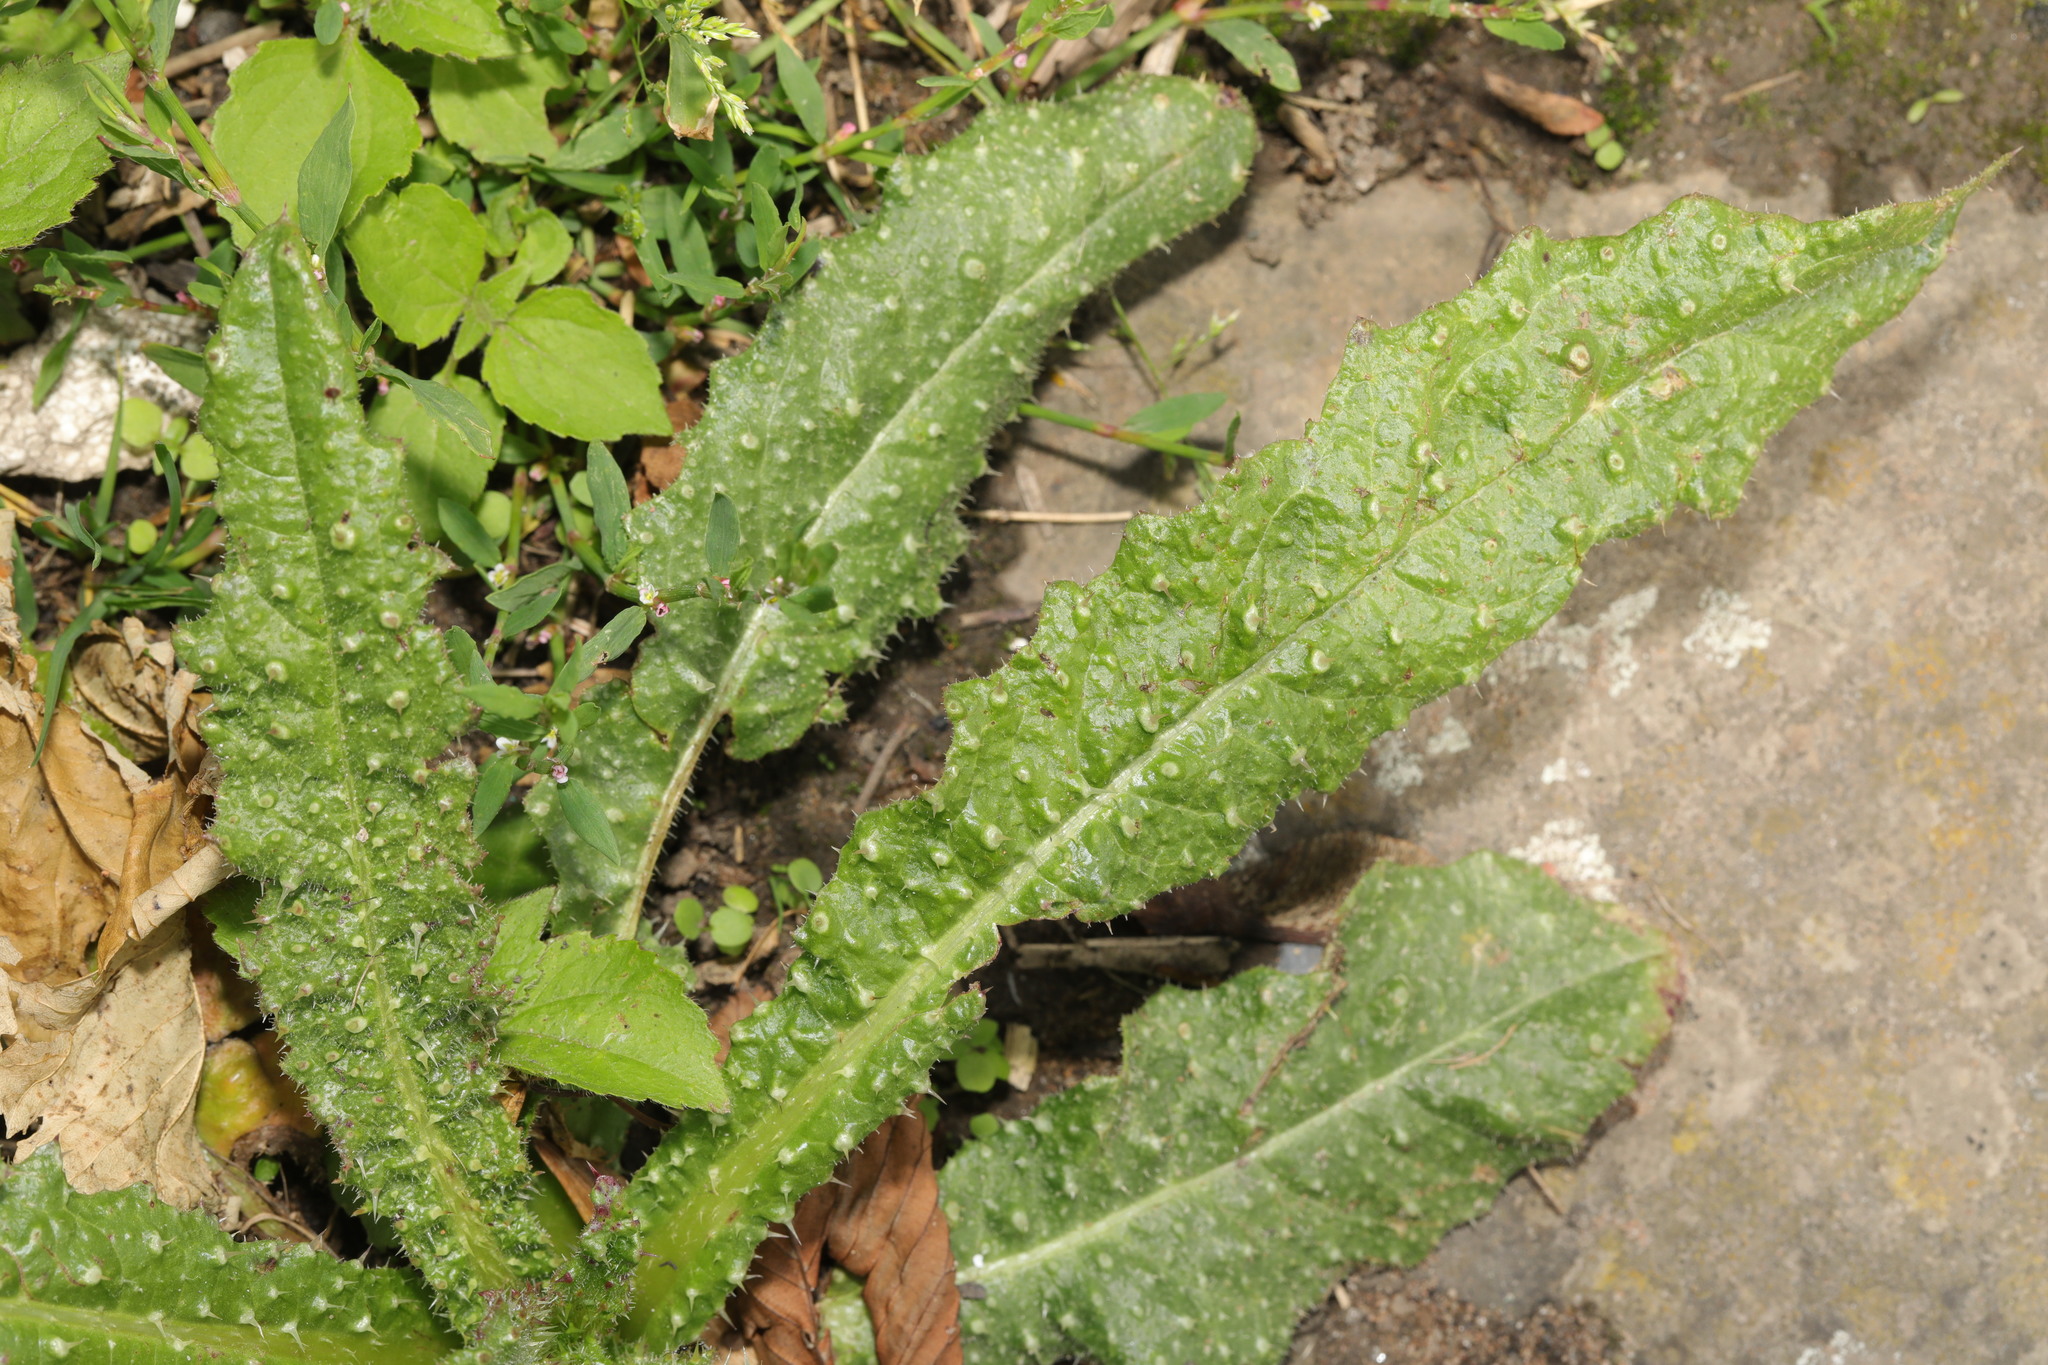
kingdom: Plantae
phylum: Tracheophyta
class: Magnoliopsida
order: Asterales
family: Asteraceae
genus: Helminthotheca
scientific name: Helminthotheca echioides
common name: Ox-tongue
